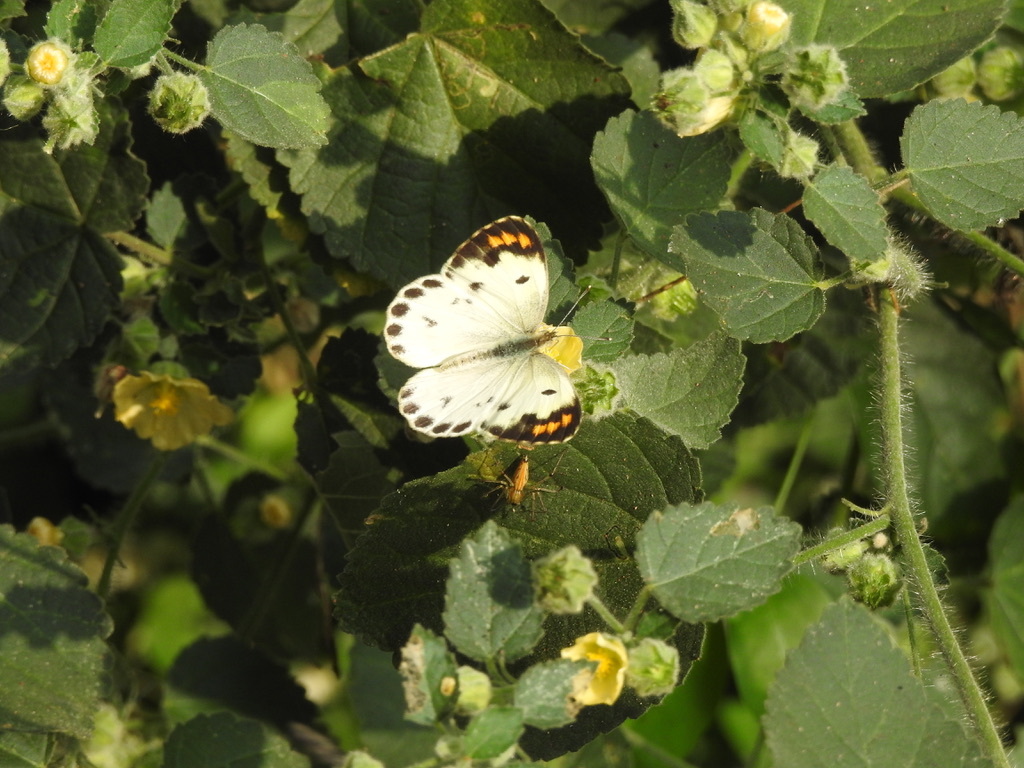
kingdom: Animalia
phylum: Arthropoda
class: Insecta
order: Lepidoptera
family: Pieridae
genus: Colotis
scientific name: Colotis etrida
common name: Little orange tip
